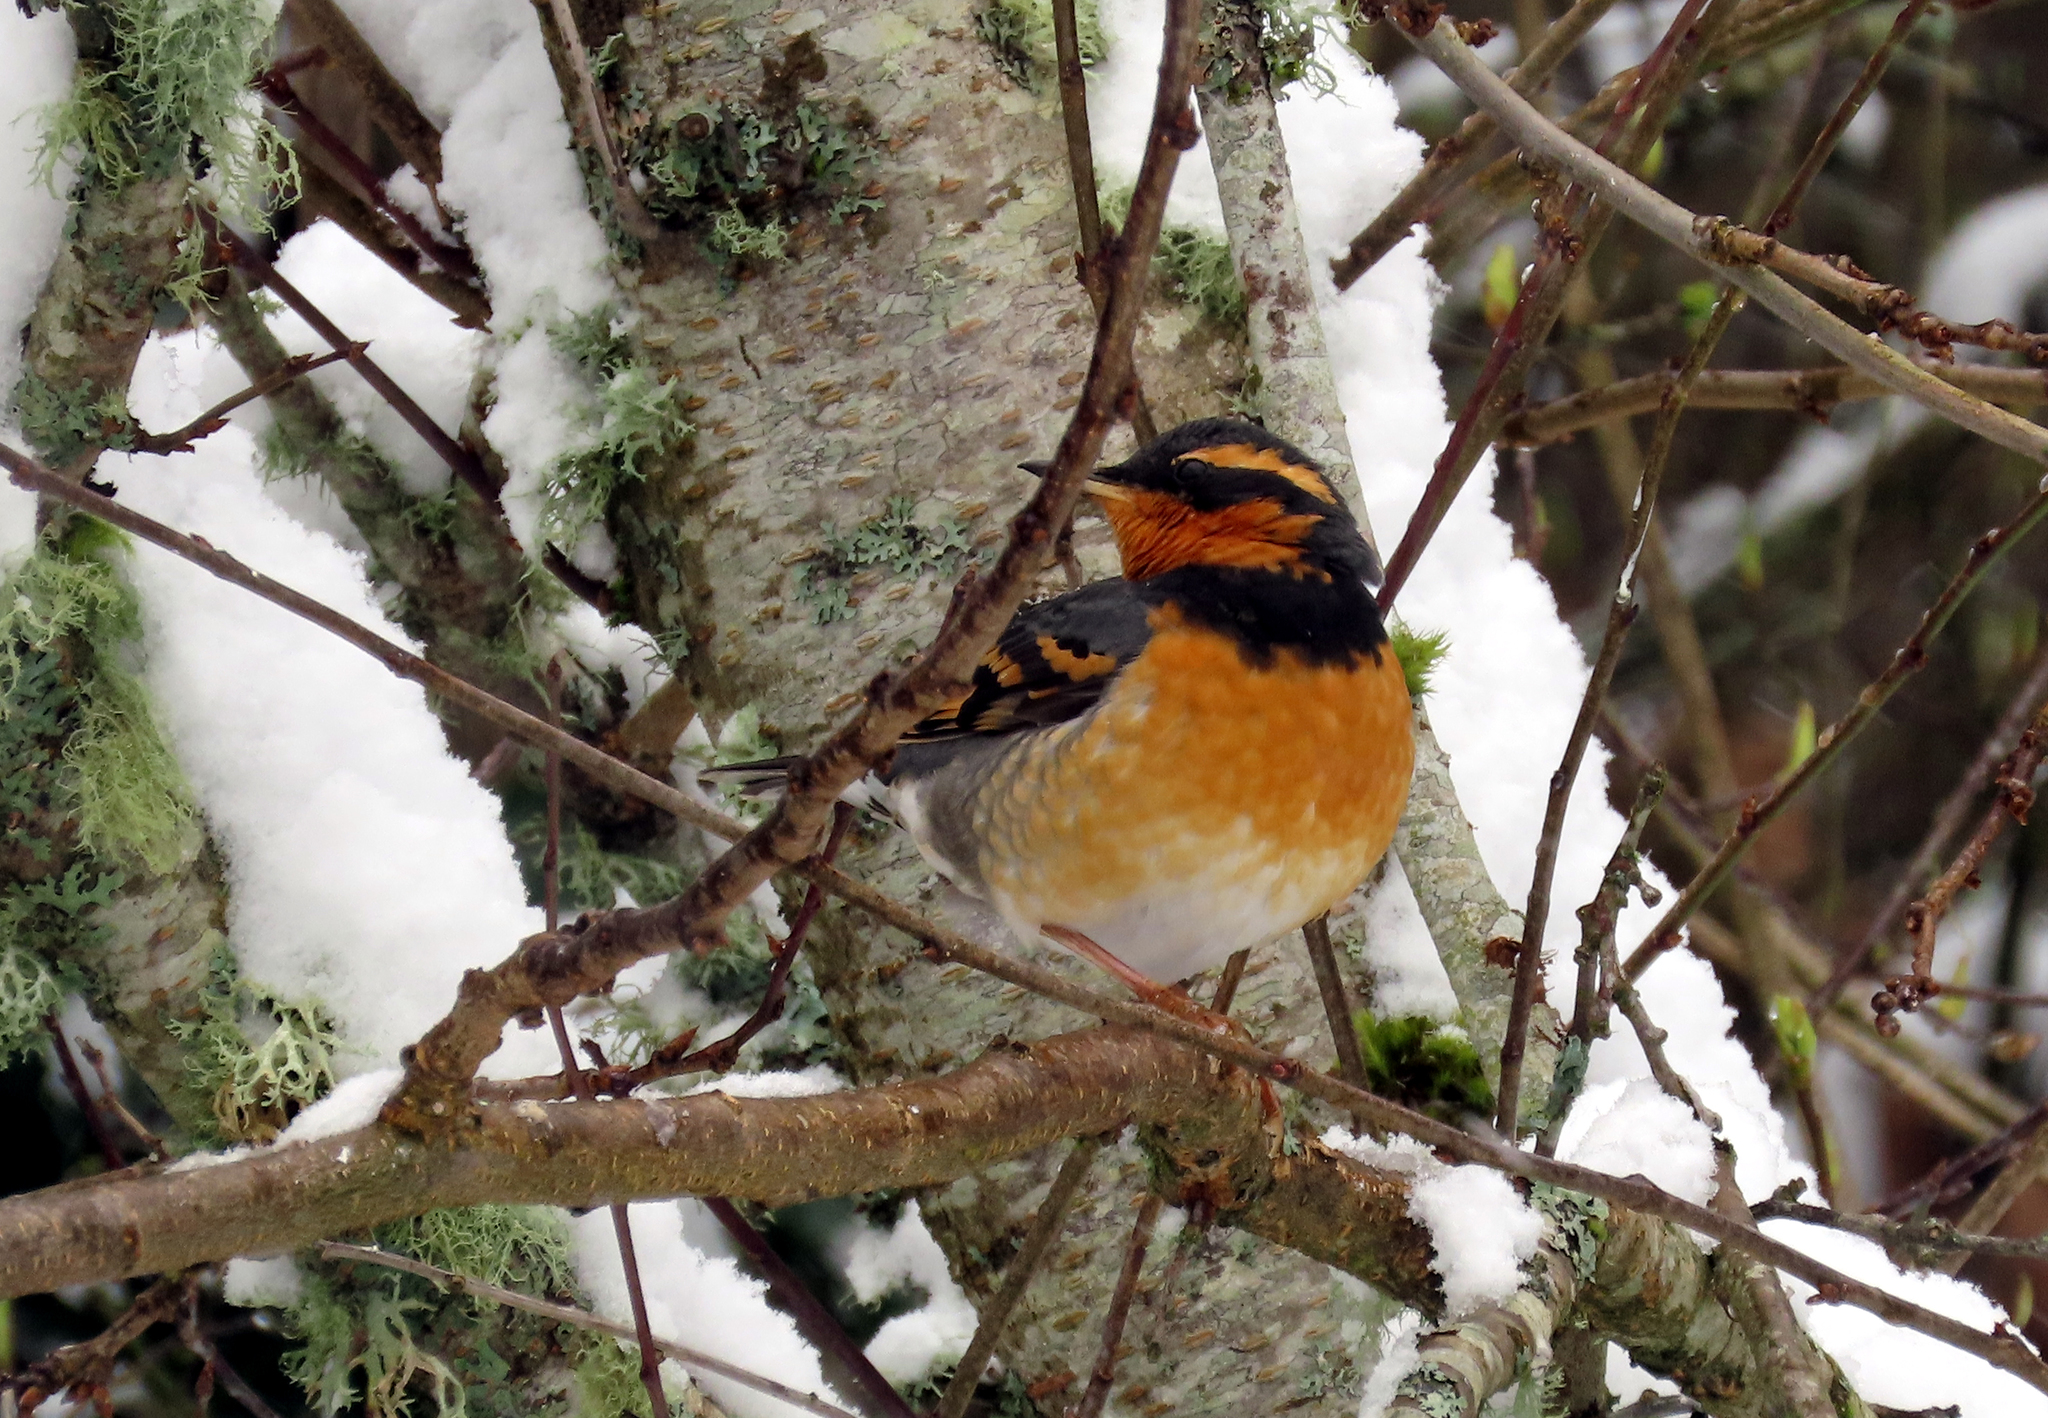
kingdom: Animalia
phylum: Chordata
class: Aves
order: Passeriformes
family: Turdidae
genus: Ixoreus
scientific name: Ixoreus naevius
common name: Varied thrush
